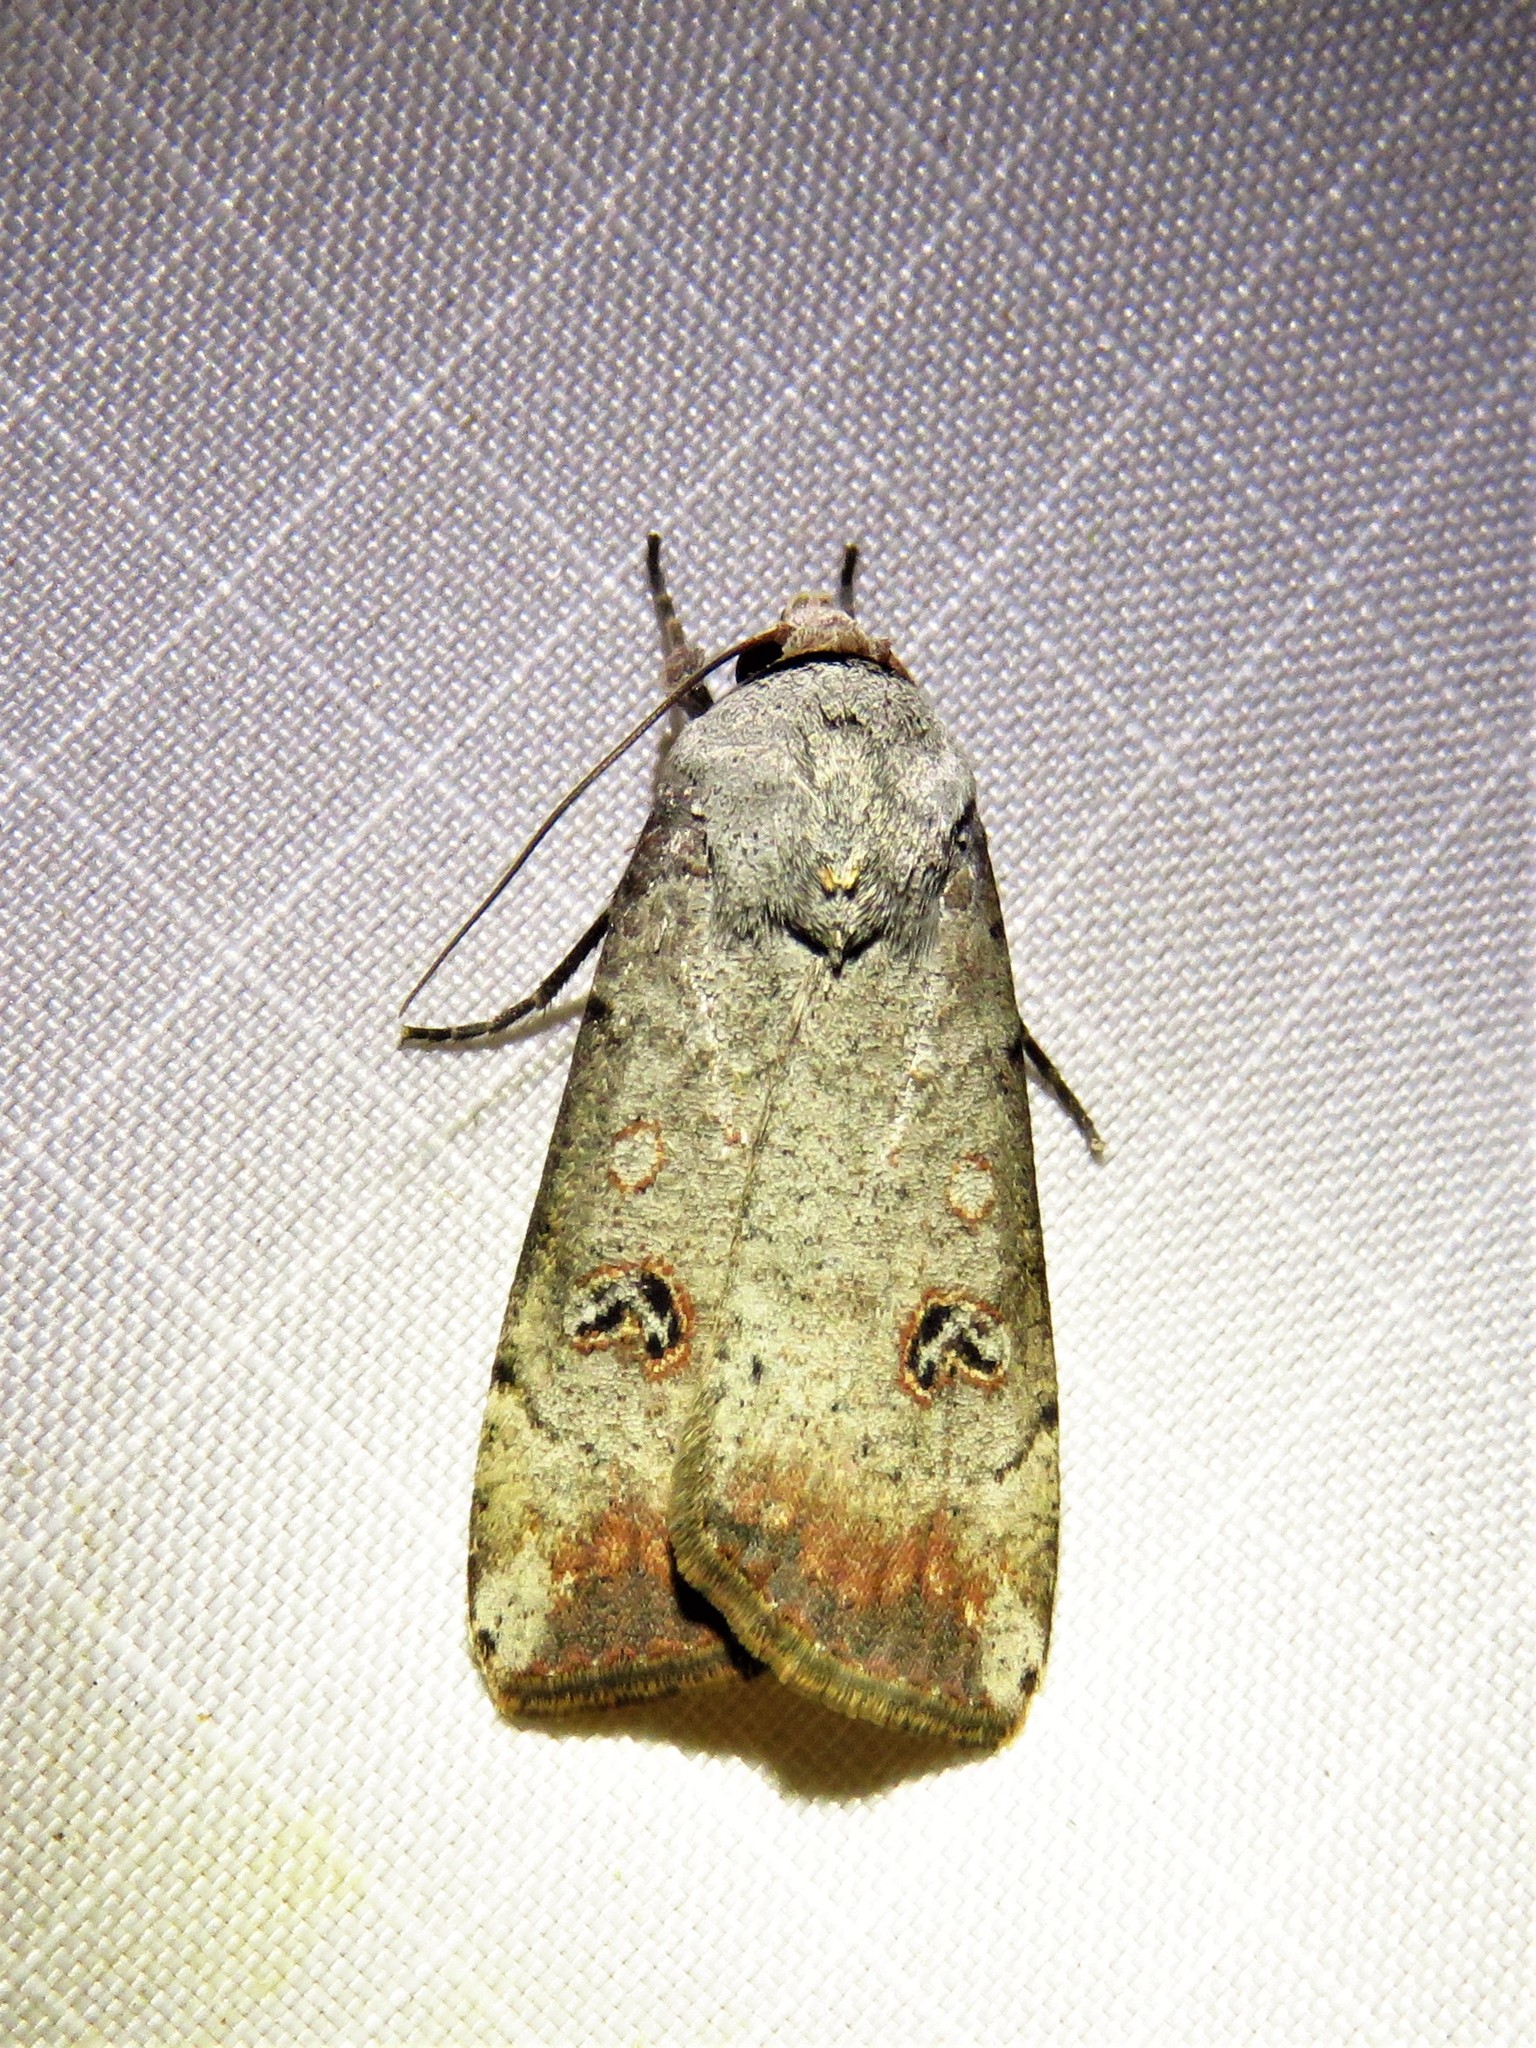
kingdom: Animalia
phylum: Arthropoda
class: Insecta
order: Lepidoptera
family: Noctuidae
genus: Anicla
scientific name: Anicla infecta
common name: Green cutworm
